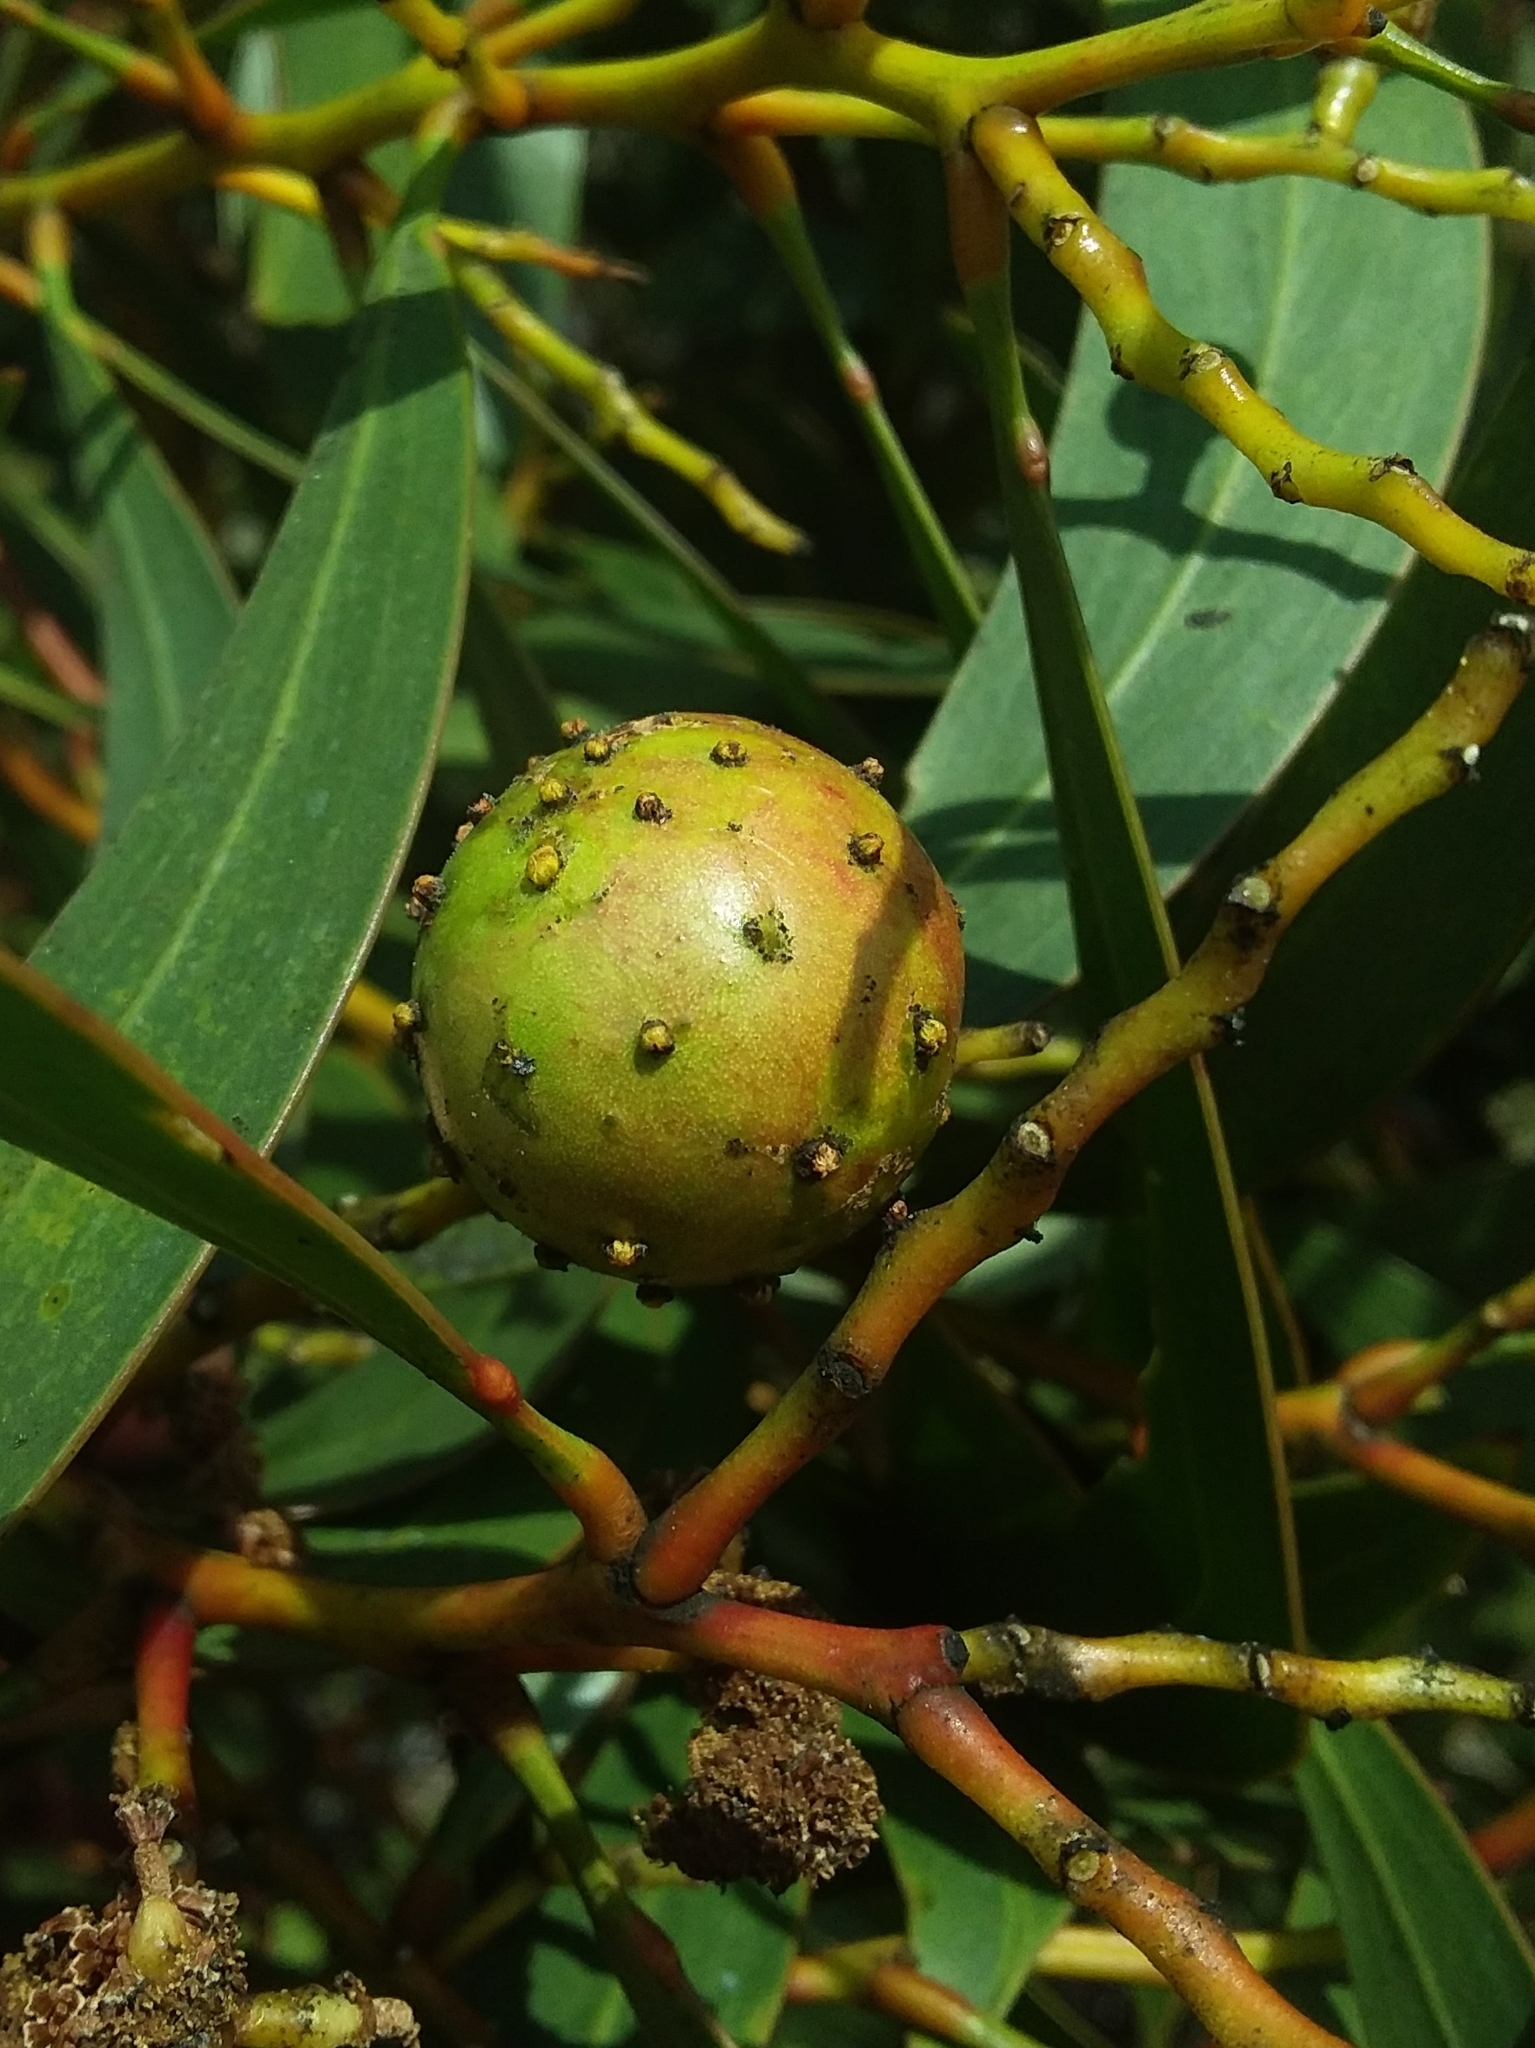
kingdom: Animalia
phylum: Arthropoda
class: Insecta
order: Hymenoptera
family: Pteromalidae
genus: Trichilogaster
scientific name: Trichilogaster signiventris
